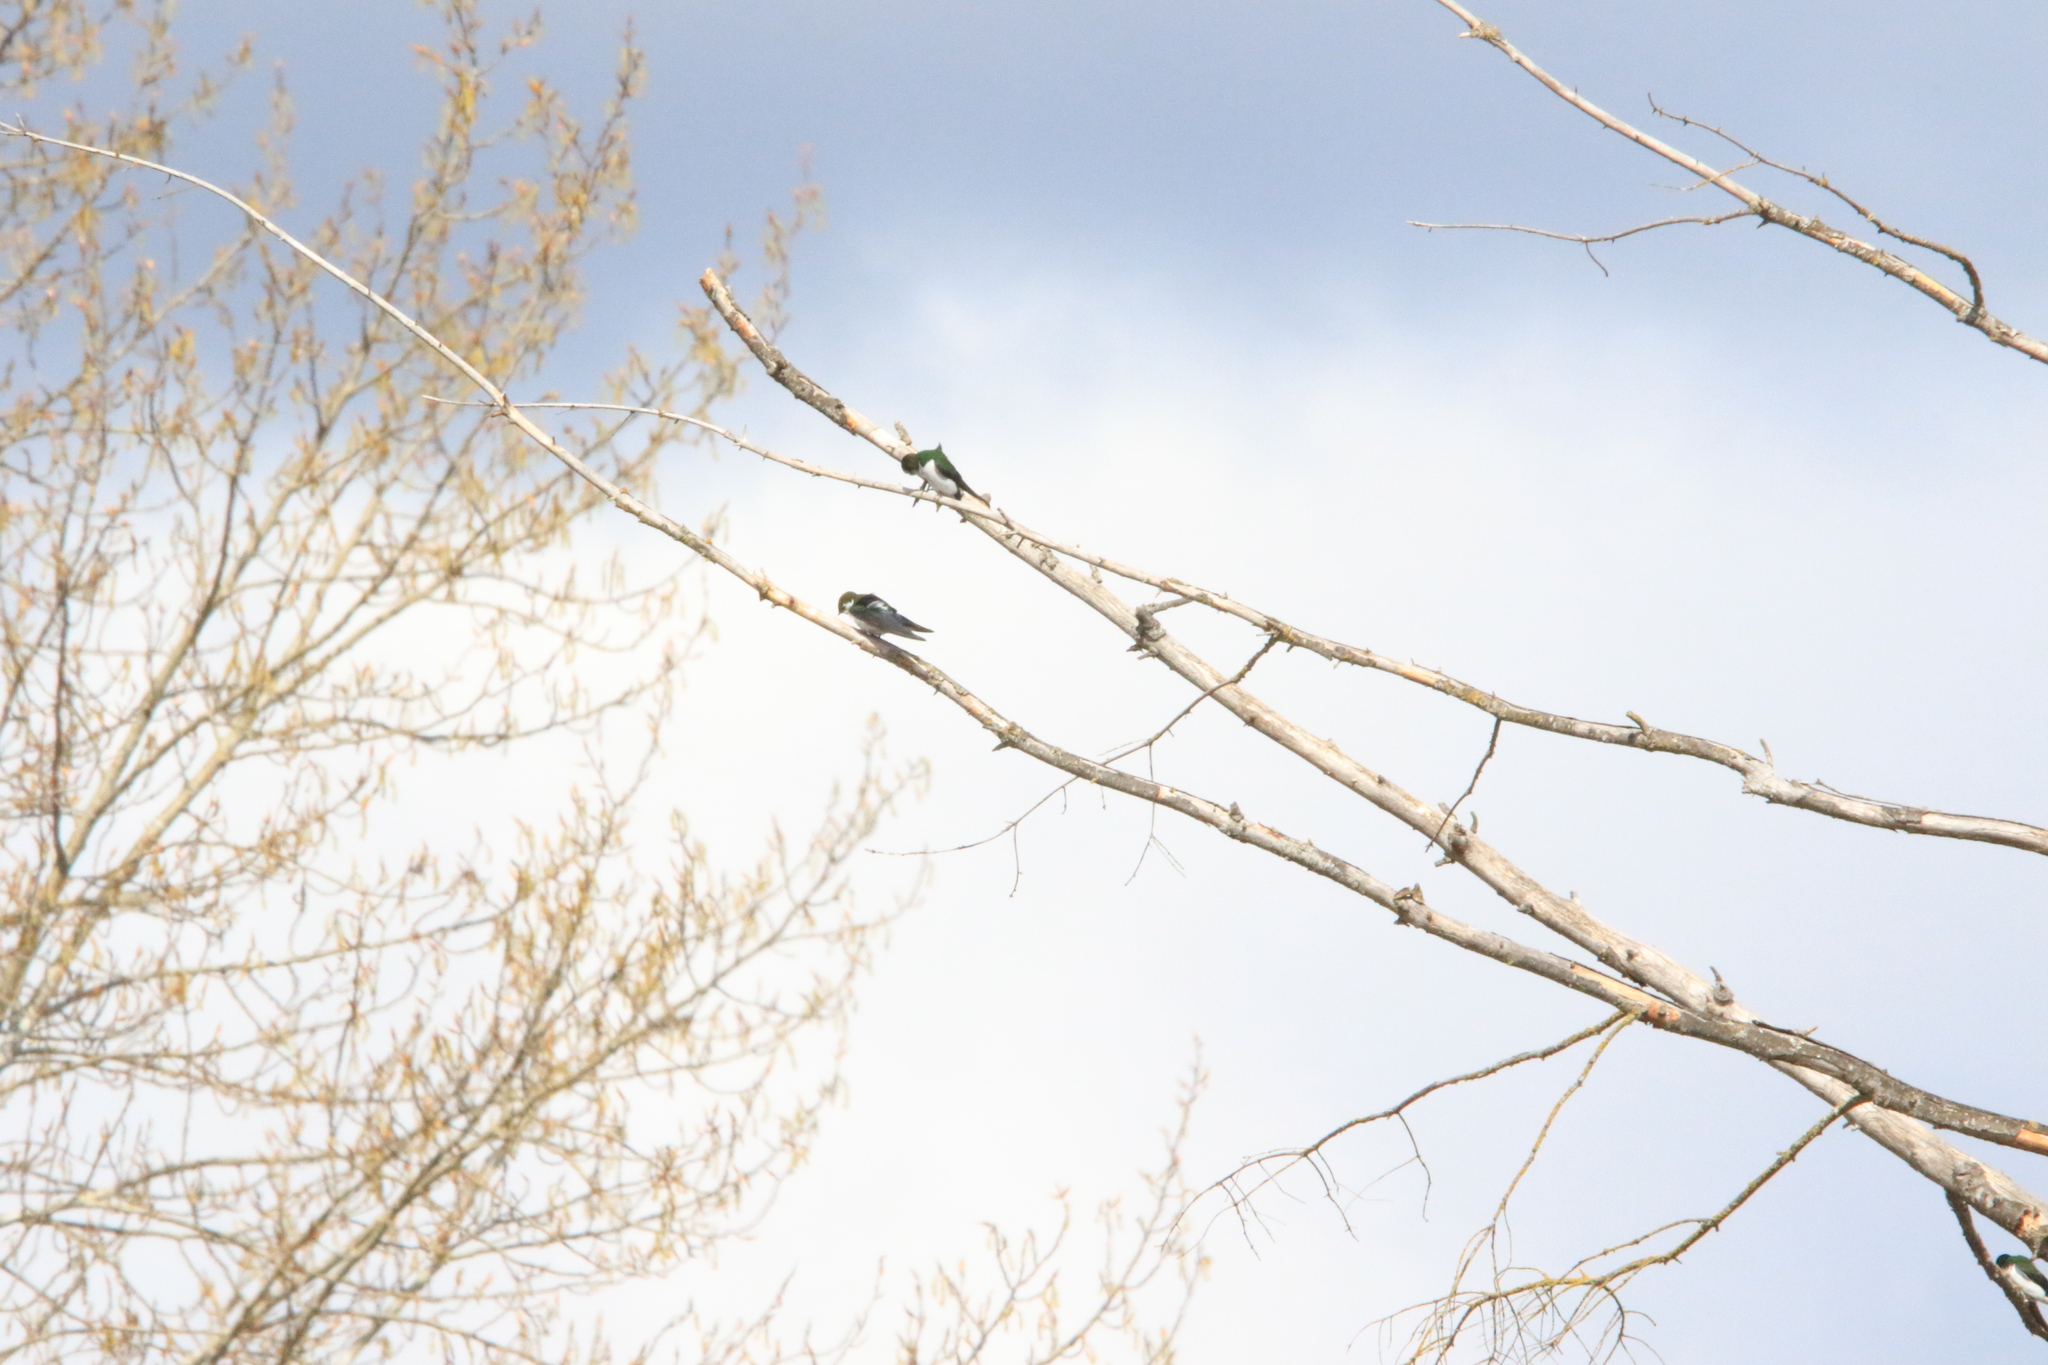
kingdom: Animalia
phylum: Chordata
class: Aves
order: Passeriformes
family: Hirundinidae
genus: Tachycineta
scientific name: Tachycineta thalassina
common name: Violet-green swallow
